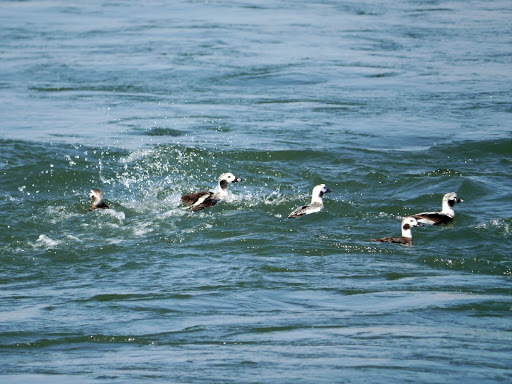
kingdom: Animalia
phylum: Chordata
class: Aves
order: Anseriformes
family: Anatidae
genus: Clangula
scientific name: Clangula hyemalis
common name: Long-tailed duck
